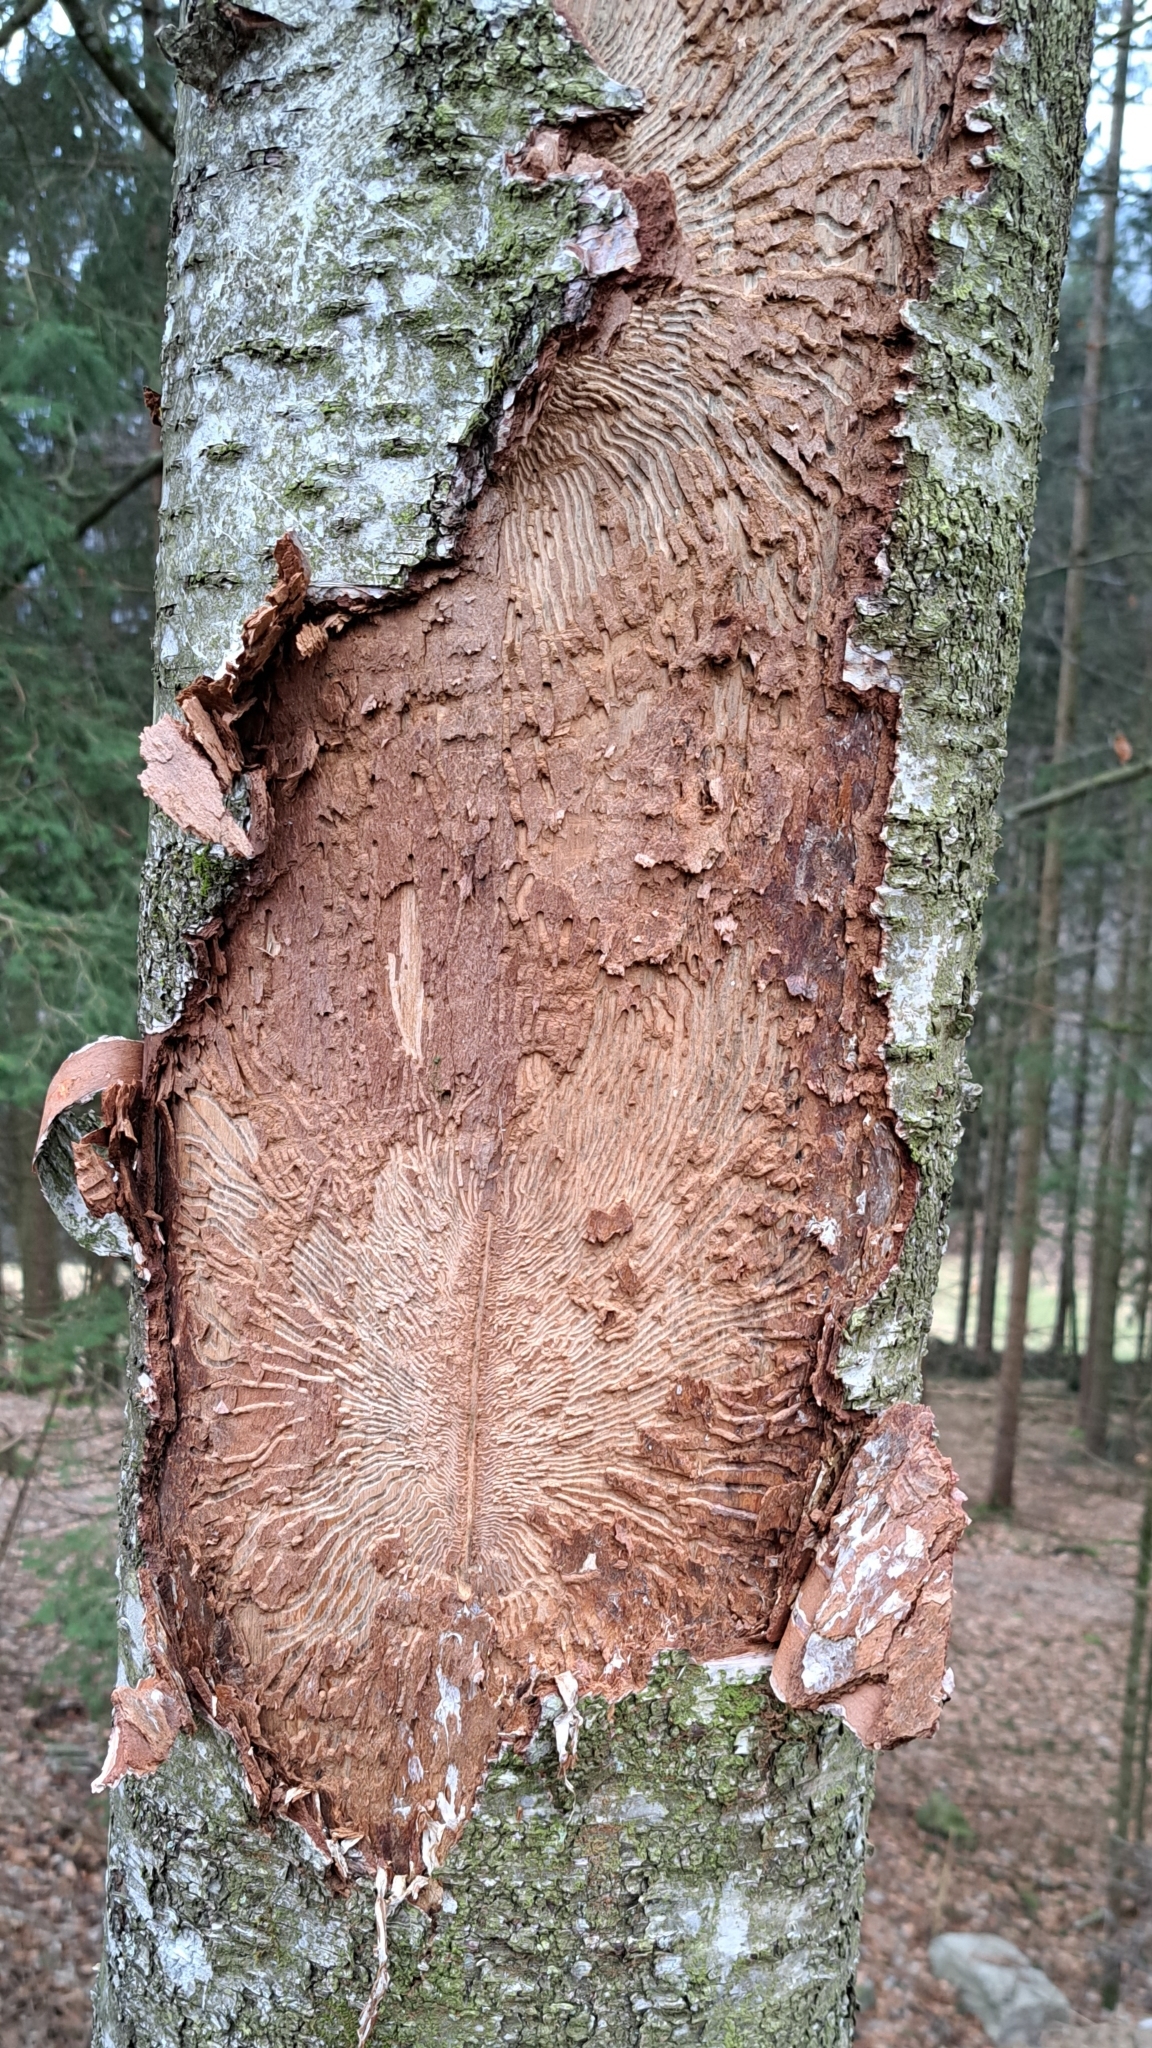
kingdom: Animalia
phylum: Arthropoda
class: Insecta
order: Coleoptera
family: Curculionidae
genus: Scolytus
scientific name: Scolytus ratzeburgii
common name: Birch bark beetle
